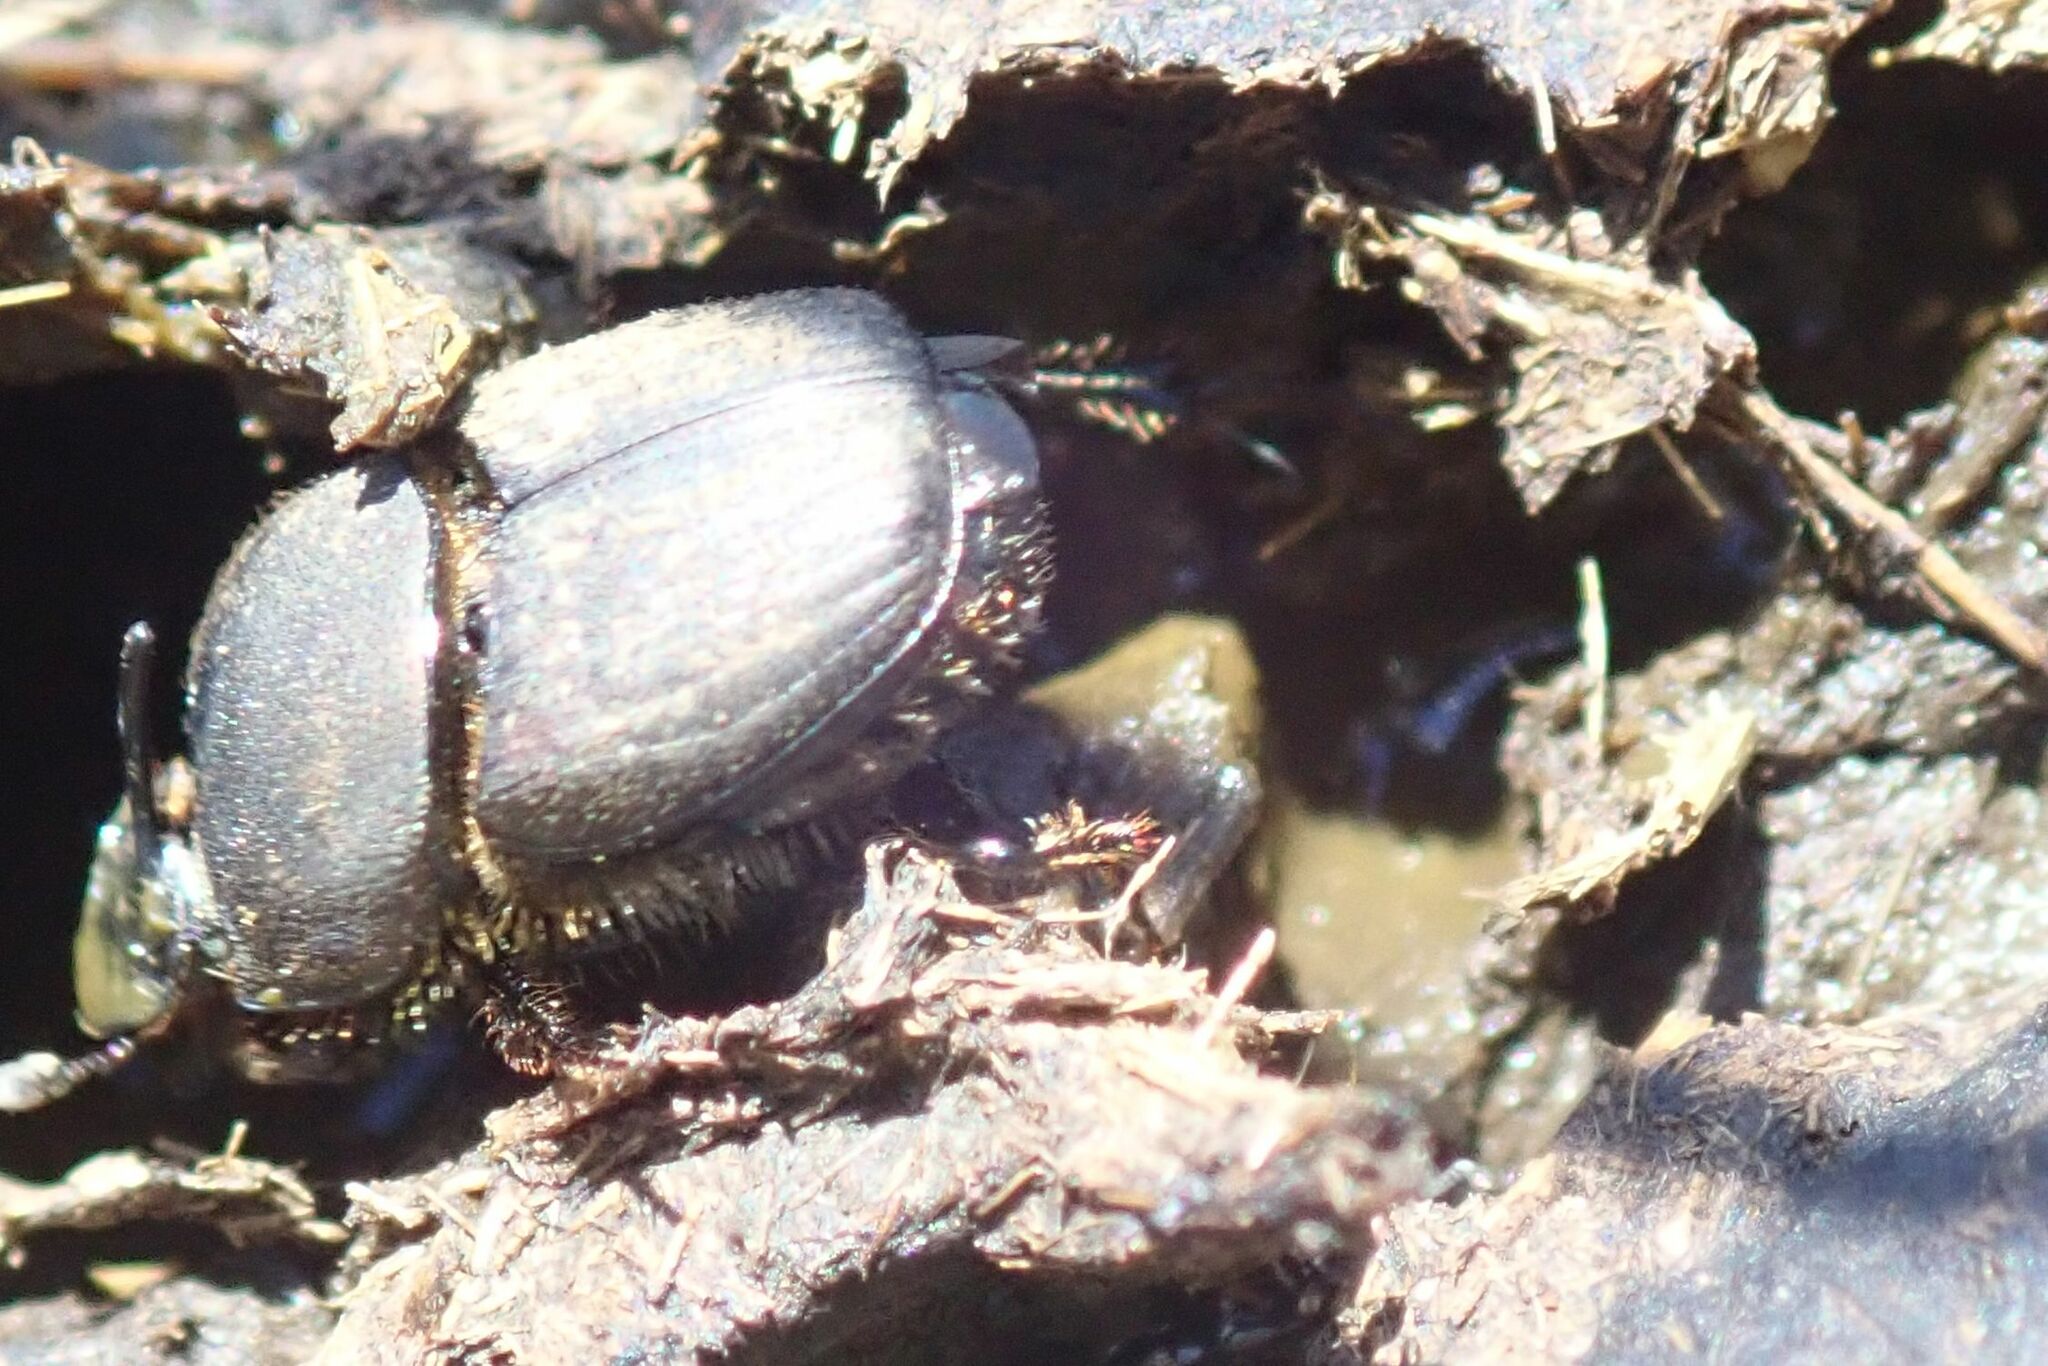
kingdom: Animalia
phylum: Arthropoda
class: Insecta
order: Coleoptera
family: Scarabaeidae
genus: Onthophagus
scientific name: Onthophagus vigens
